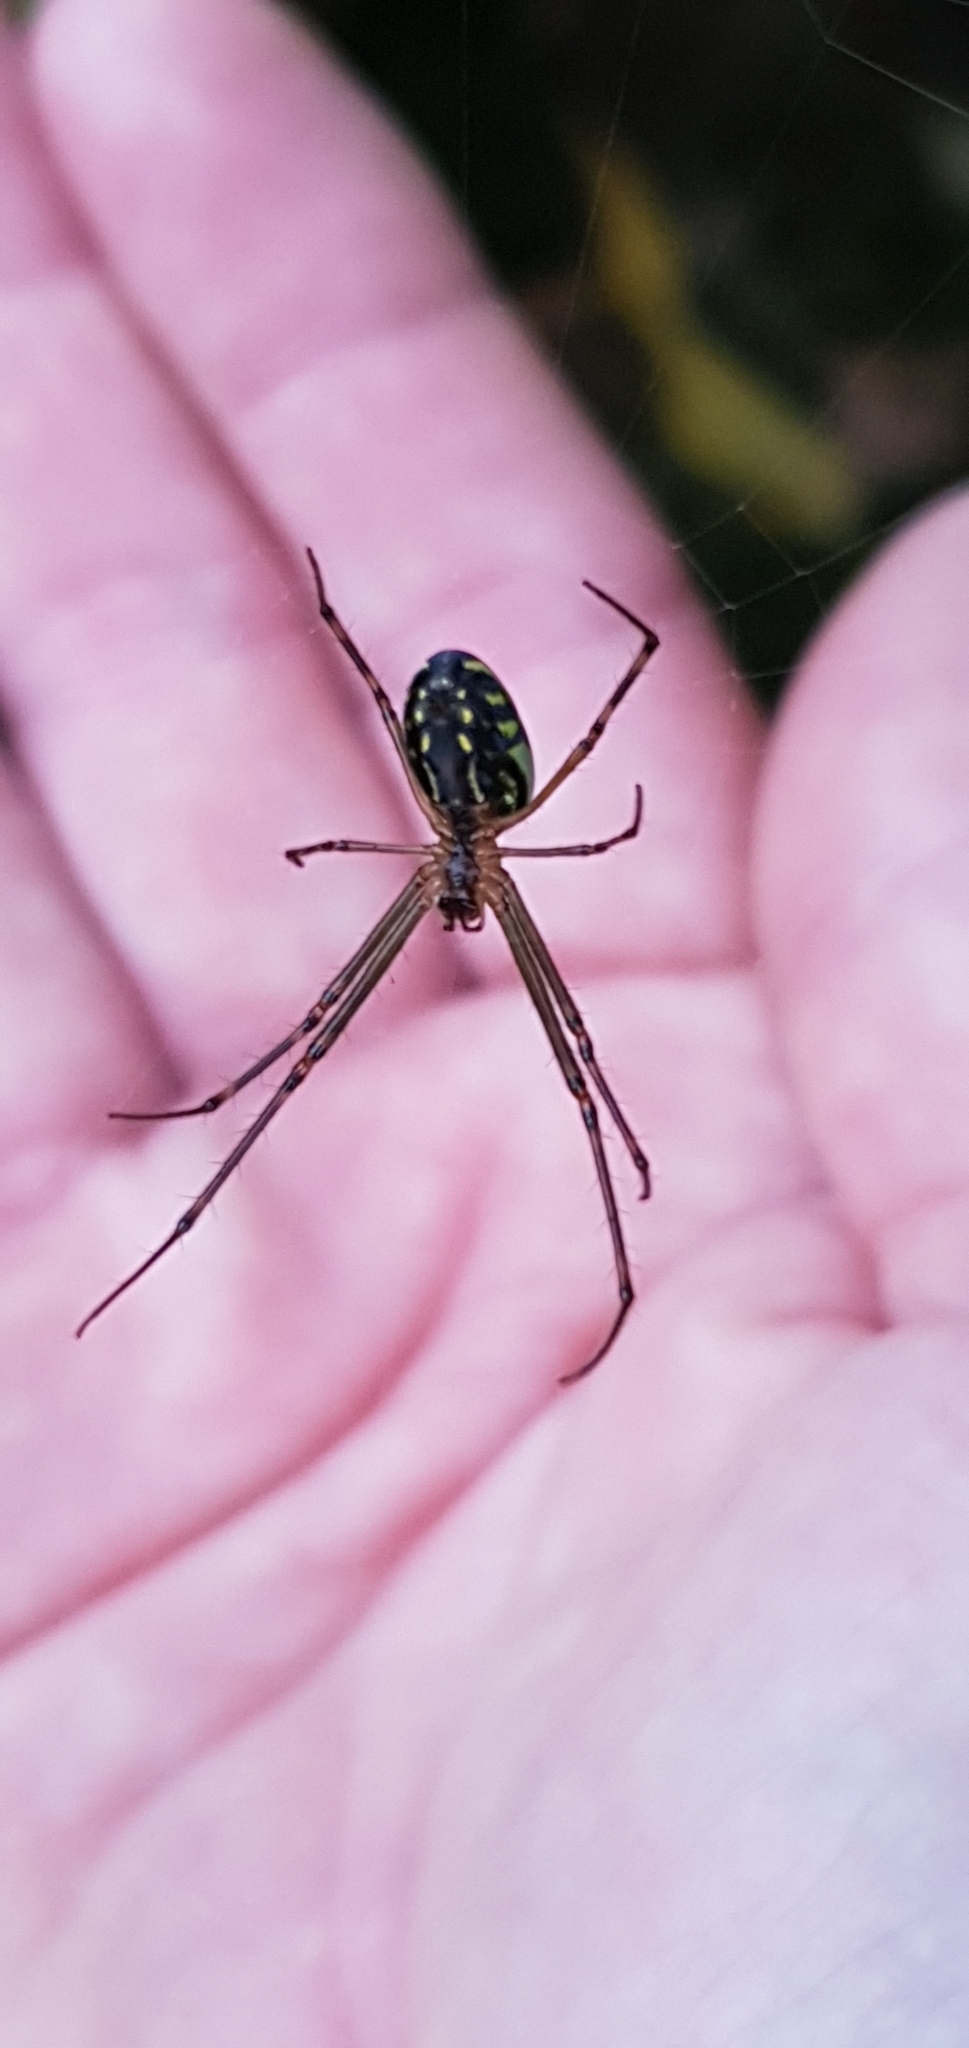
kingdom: Animalia
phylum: Arthropoda
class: Arachnida
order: Araneae
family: Tetragnathidae
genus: Leucauge
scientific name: Leucauge dromedaria
